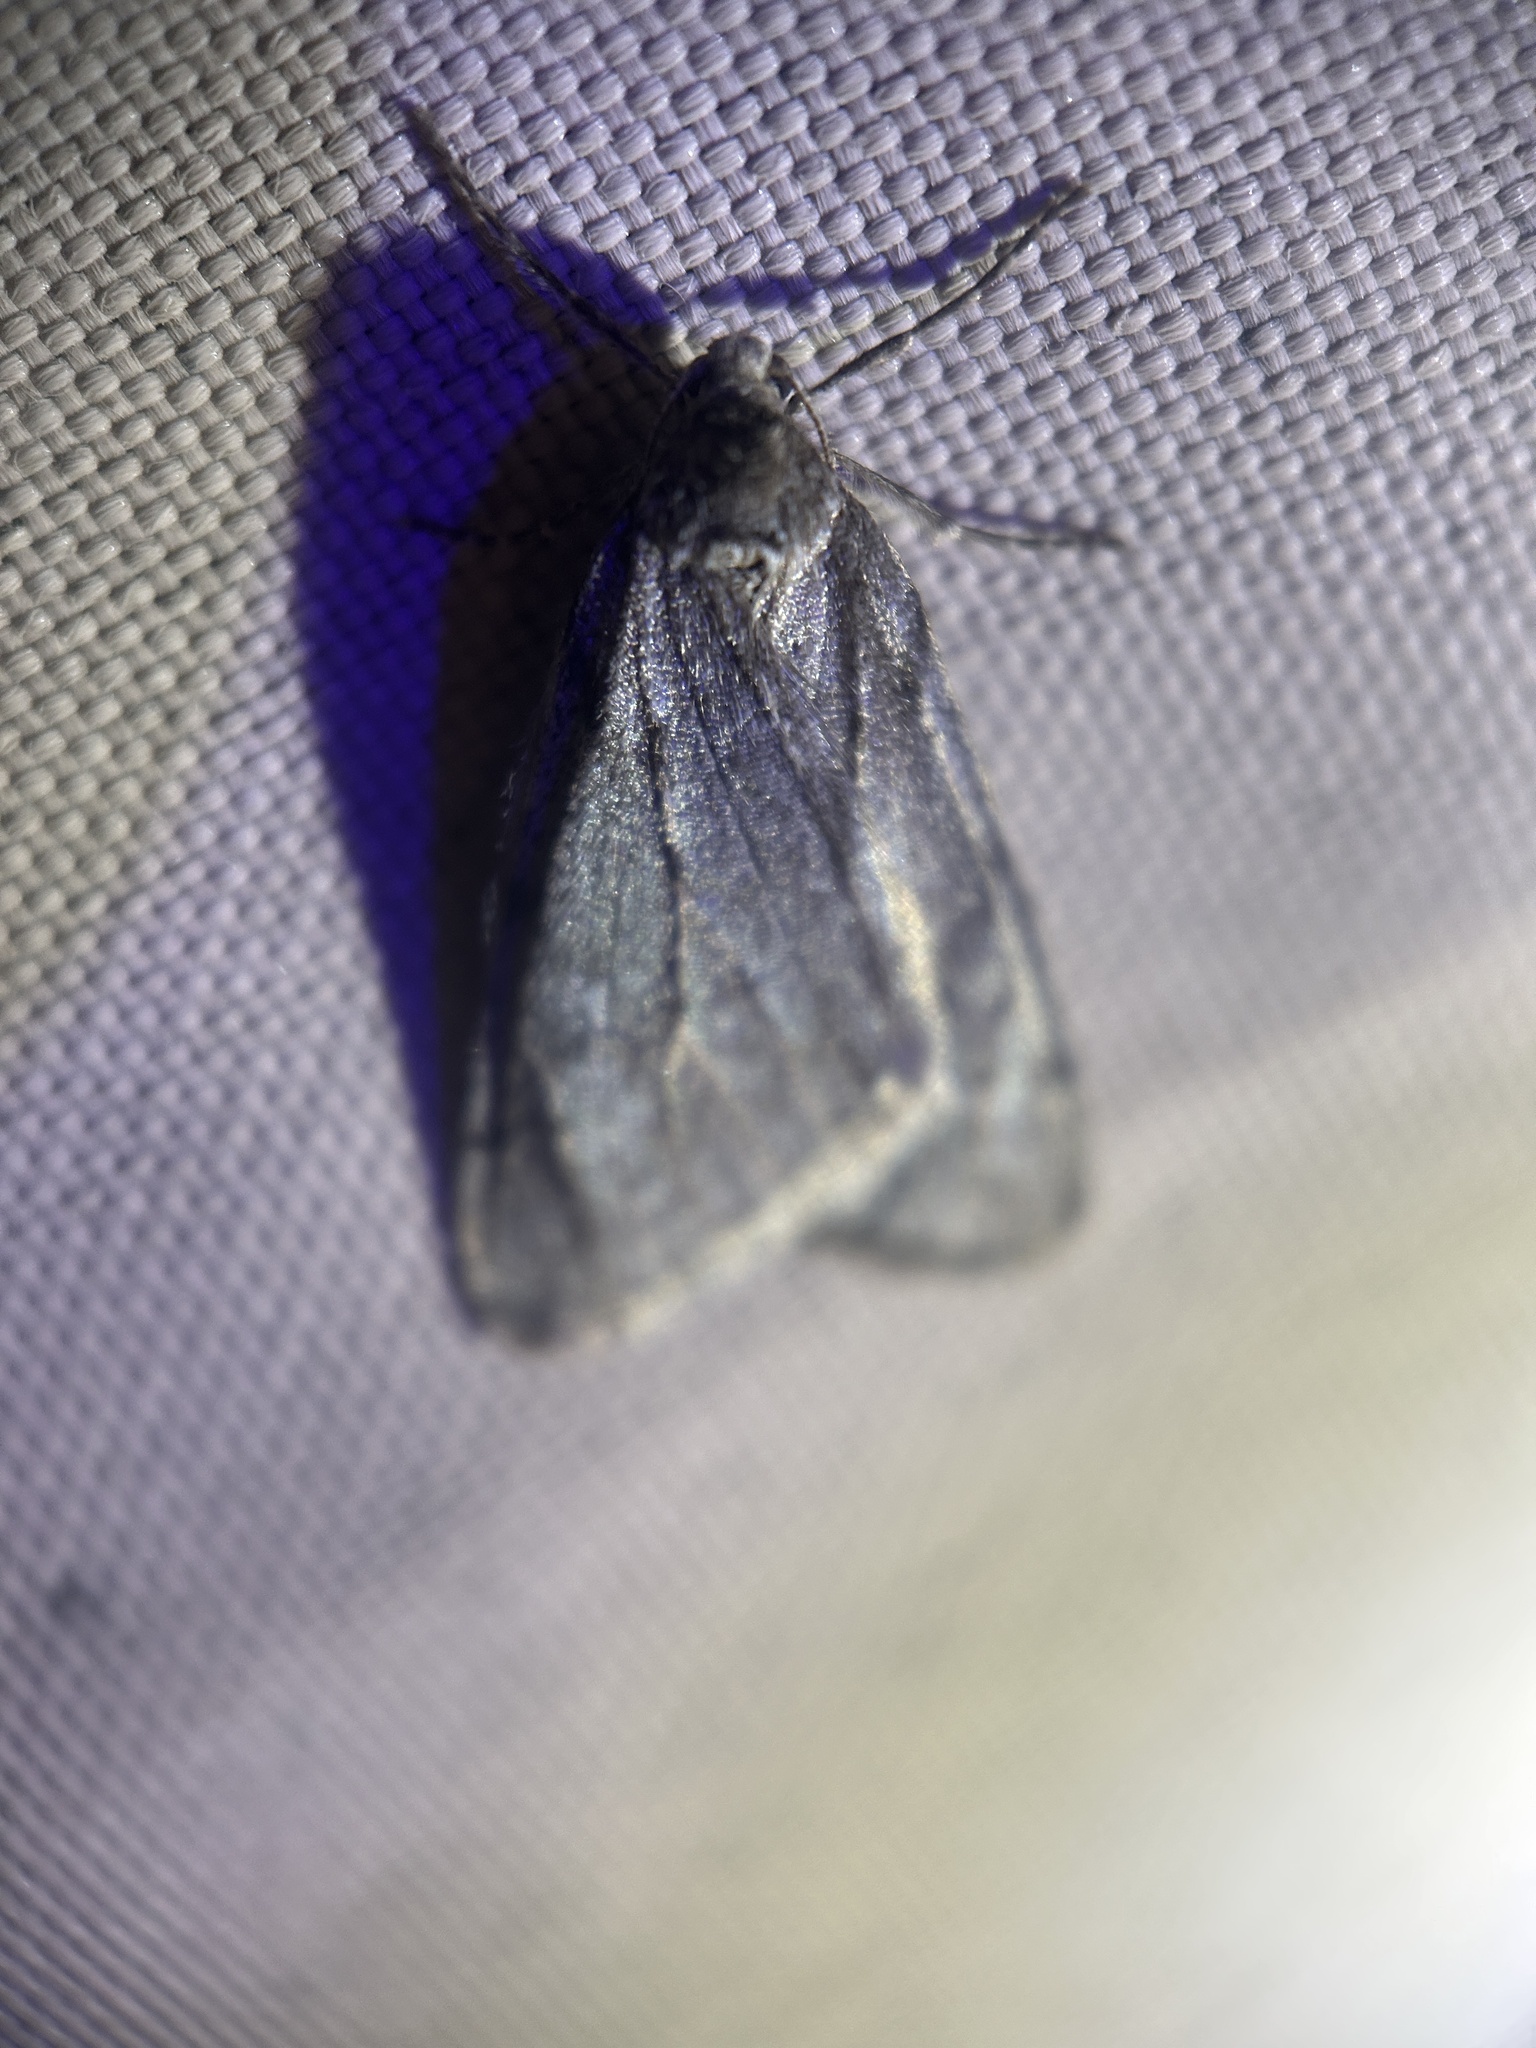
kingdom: Animalia
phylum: Arthropoda
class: Insecta
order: Lepidoptera
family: Geometridae
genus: Paleacrita
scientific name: Paleacrita vernata
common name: Spring cankerworm
